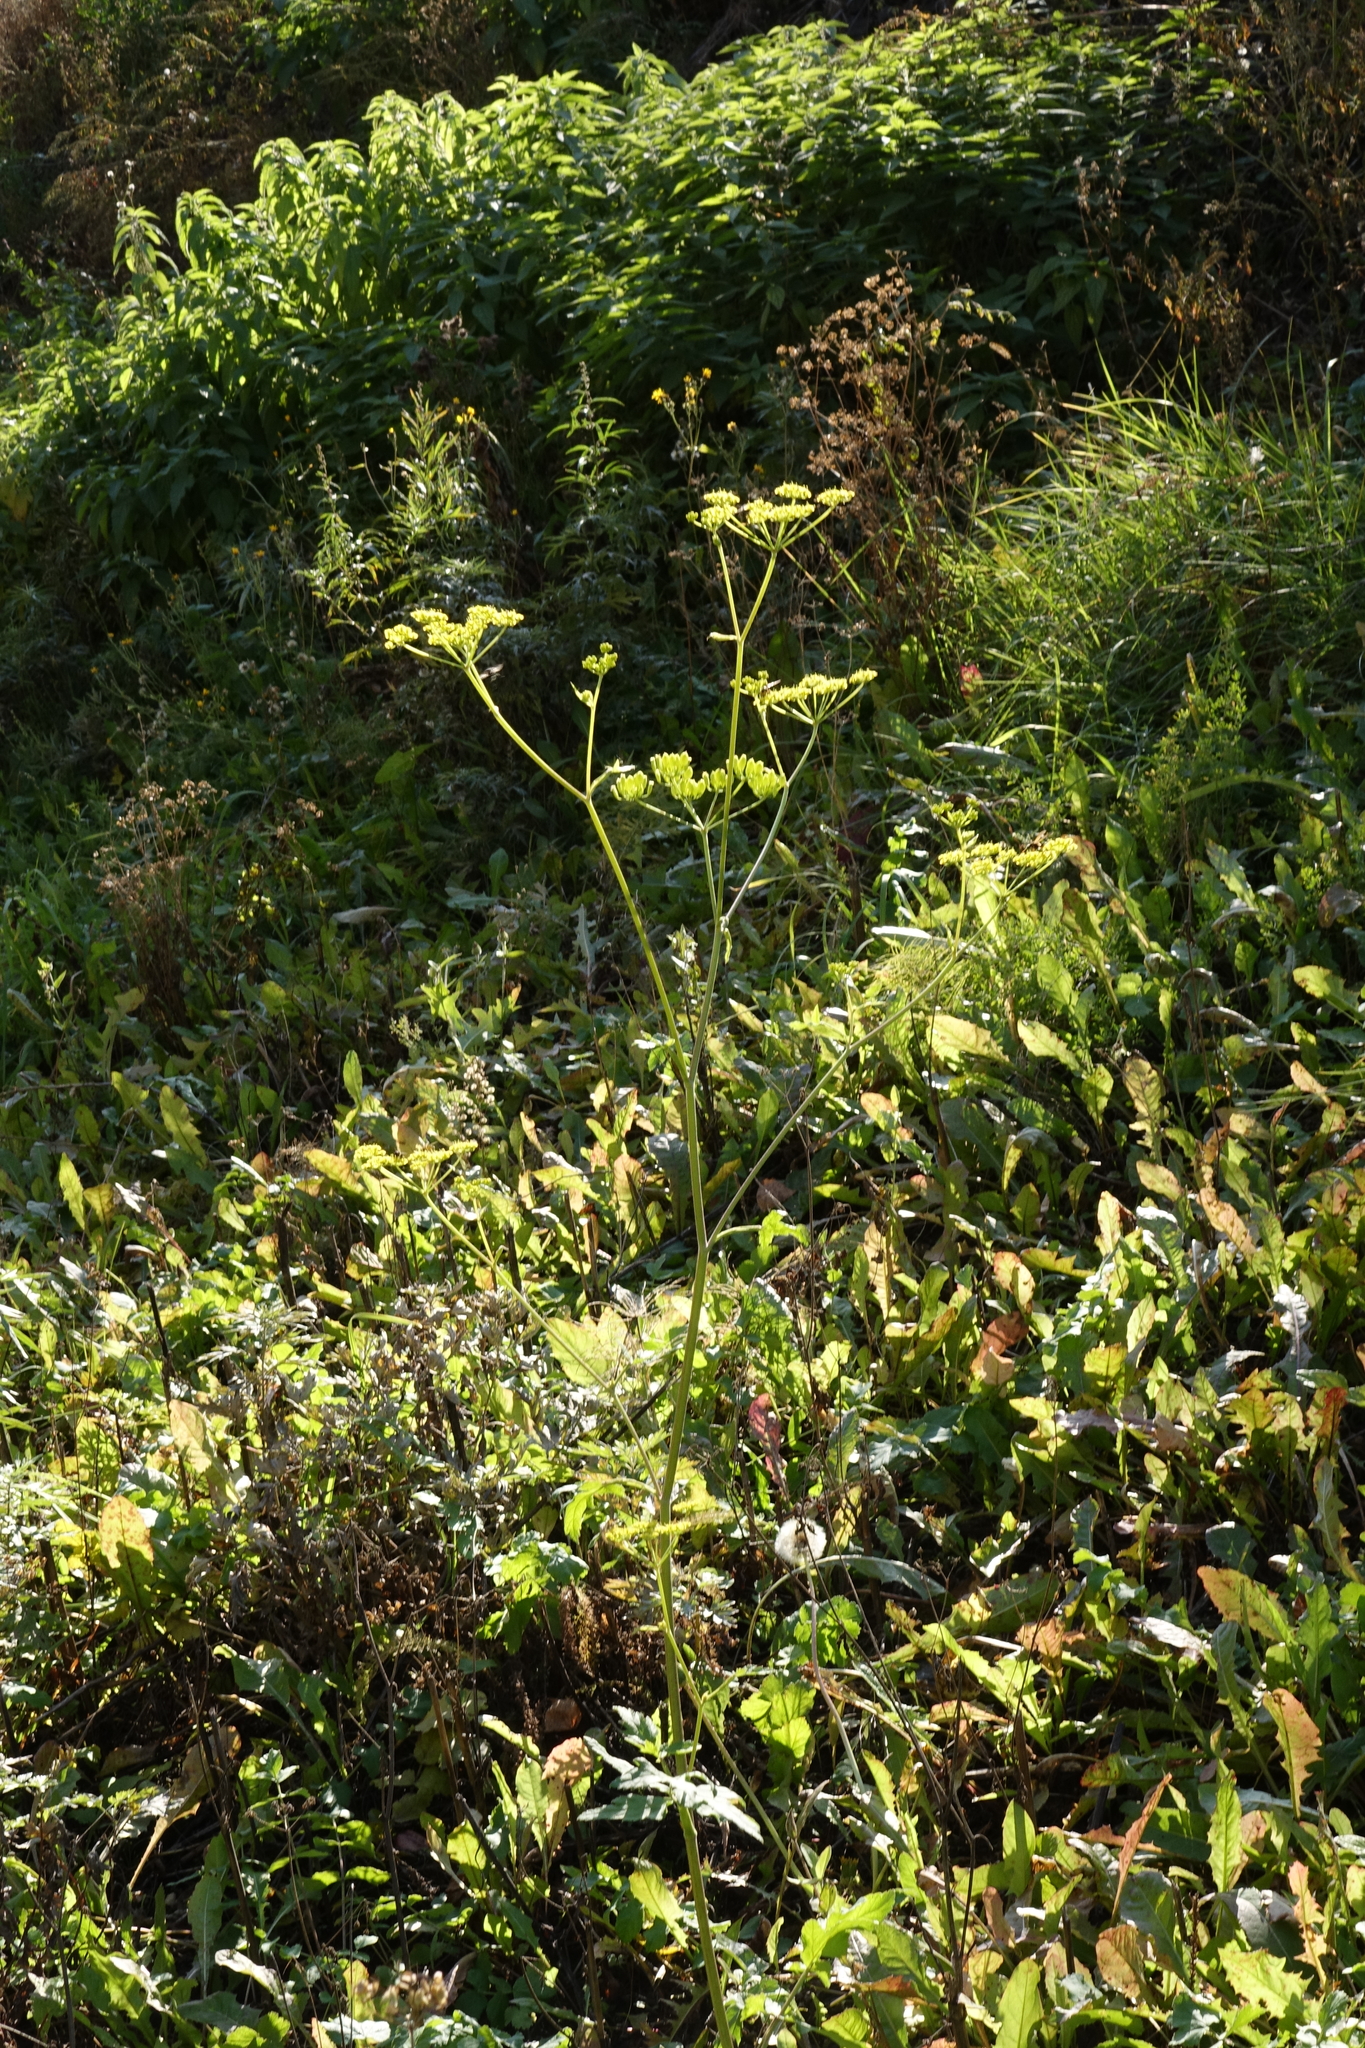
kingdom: Plantae
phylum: Tracheophyta
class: Magnoliopsida
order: Apiales
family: Apiaceae
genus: Pastinaca
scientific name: Pastinaca sativa
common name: Wild parsnip
